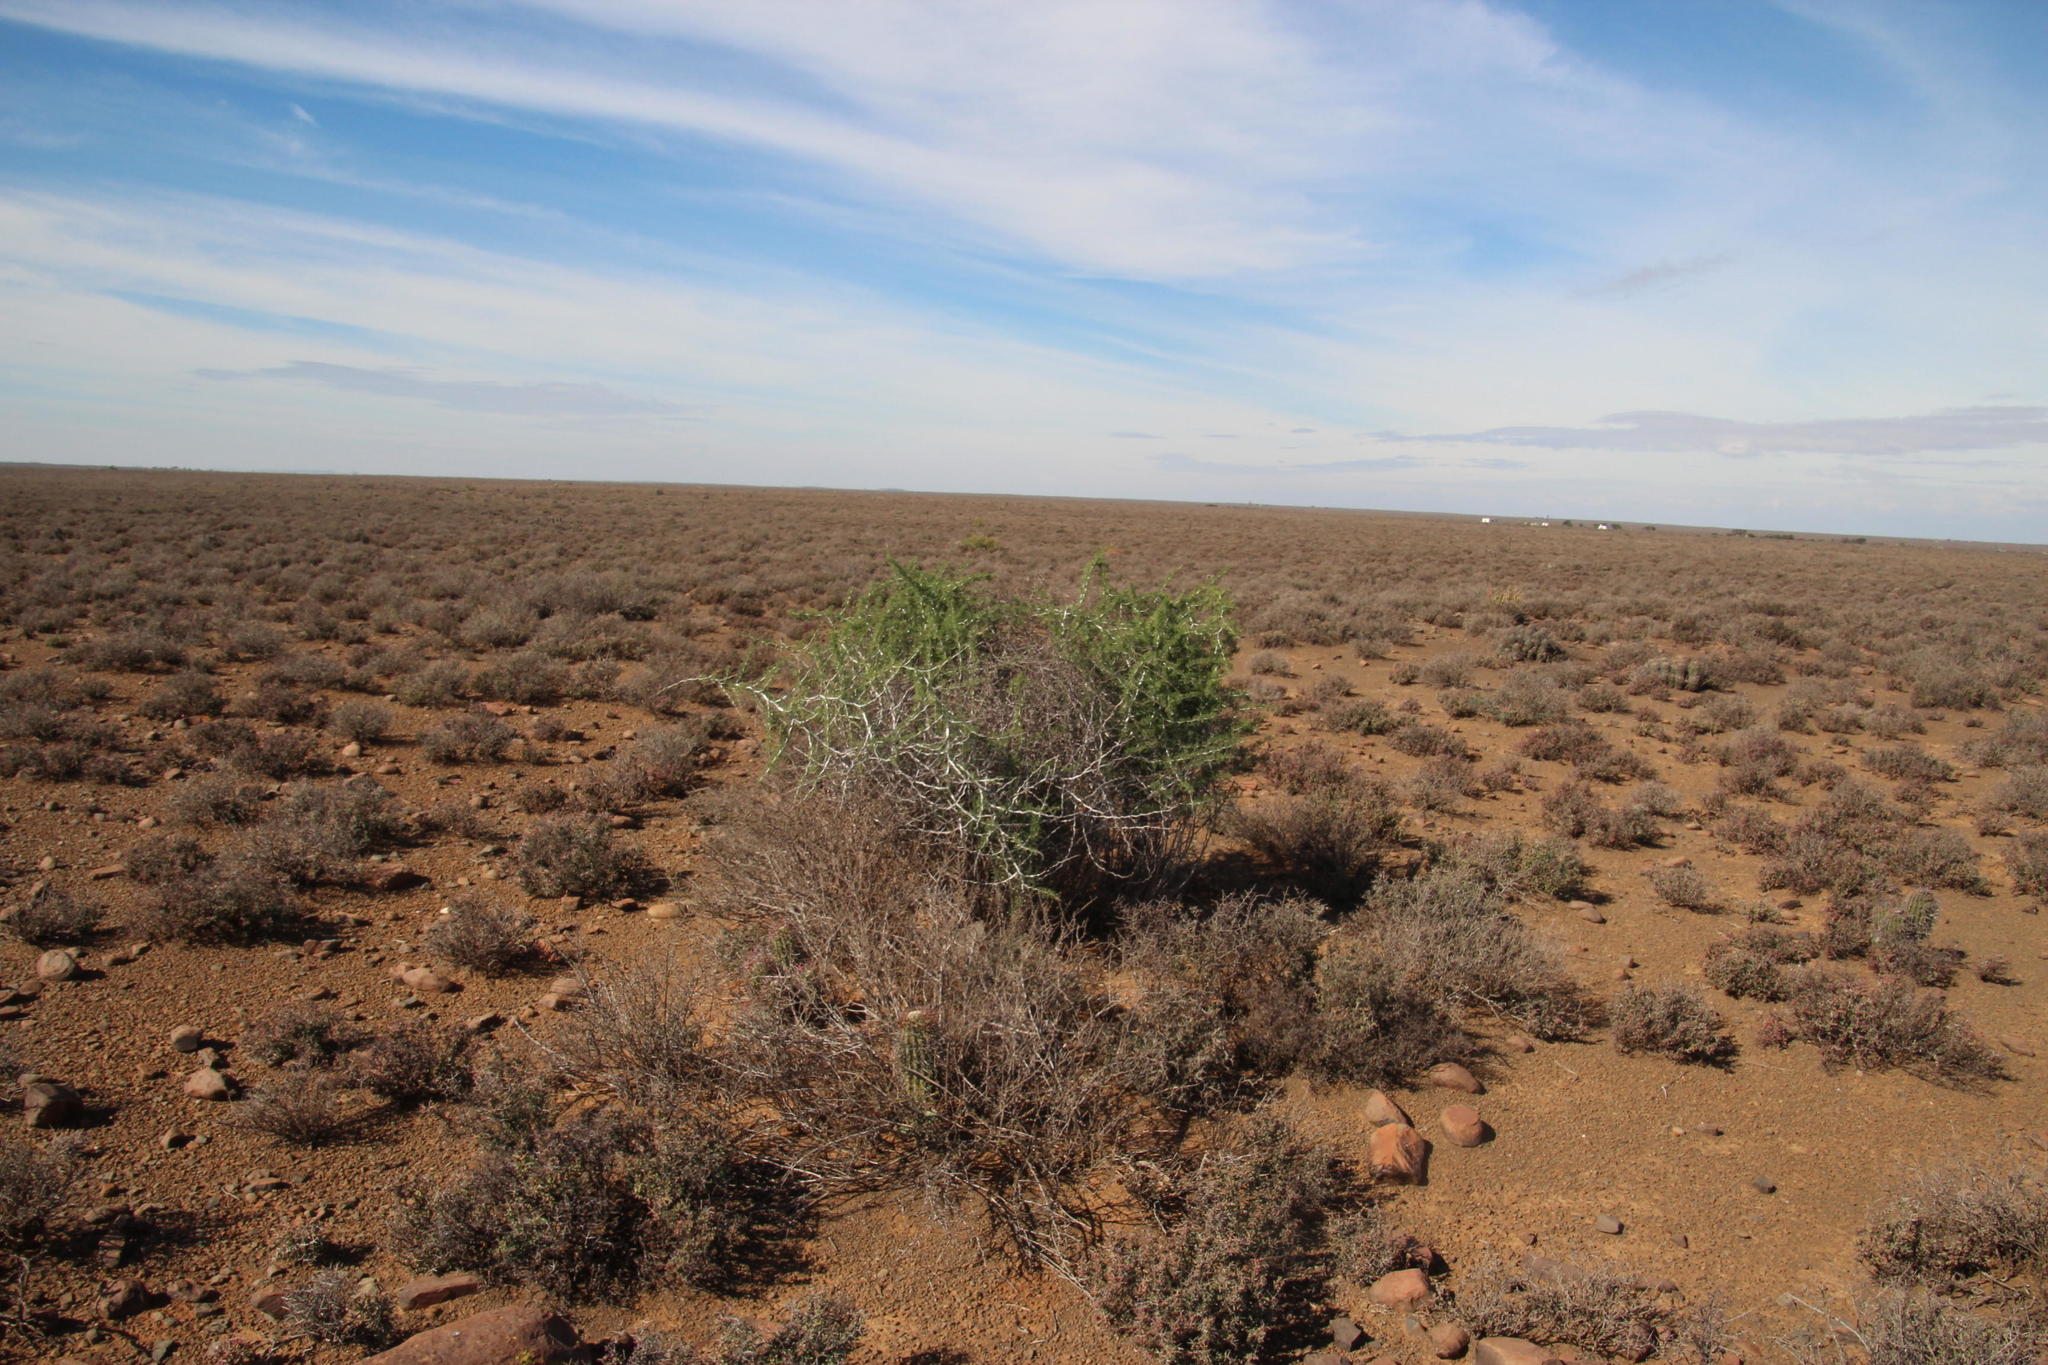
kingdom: Plantae
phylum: Tracheophyta
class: Liliopsida
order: Asparagales
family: Asparagaceae
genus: Asparagus
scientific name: Asparagus burchellii
